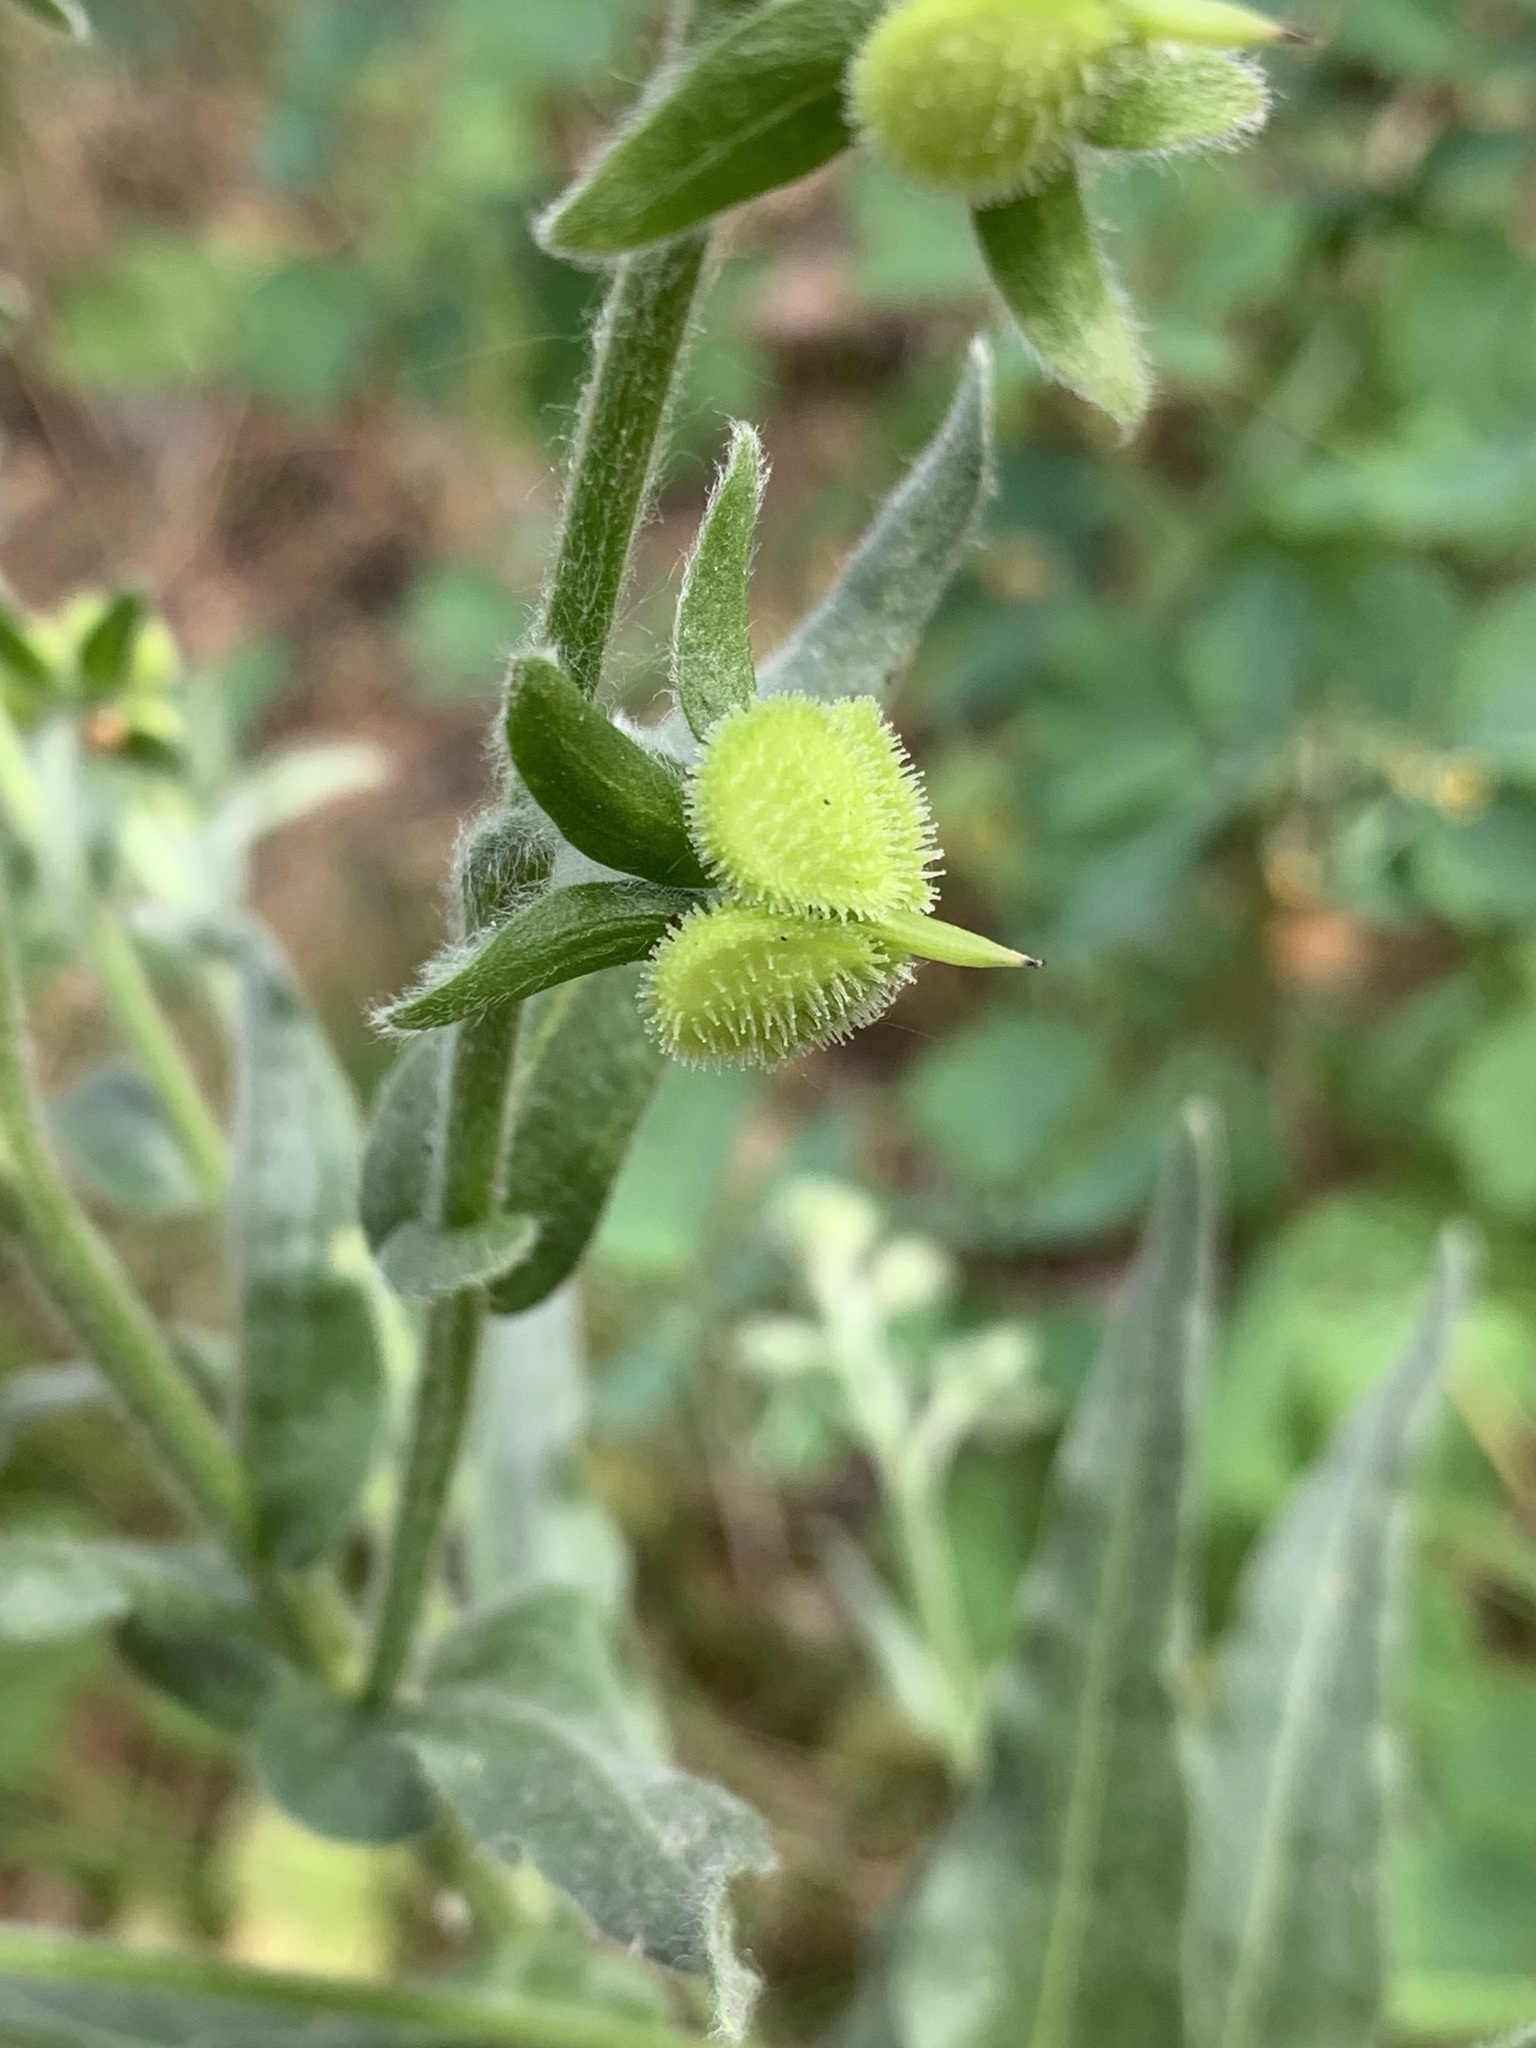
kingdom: Plantae
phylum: Tracheophyta
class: Magnoliopsida
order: Boraginales
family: Boraginaceae
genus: Cynoglossum
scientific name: Cynoglossum officinale
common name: Hound's-tongue
